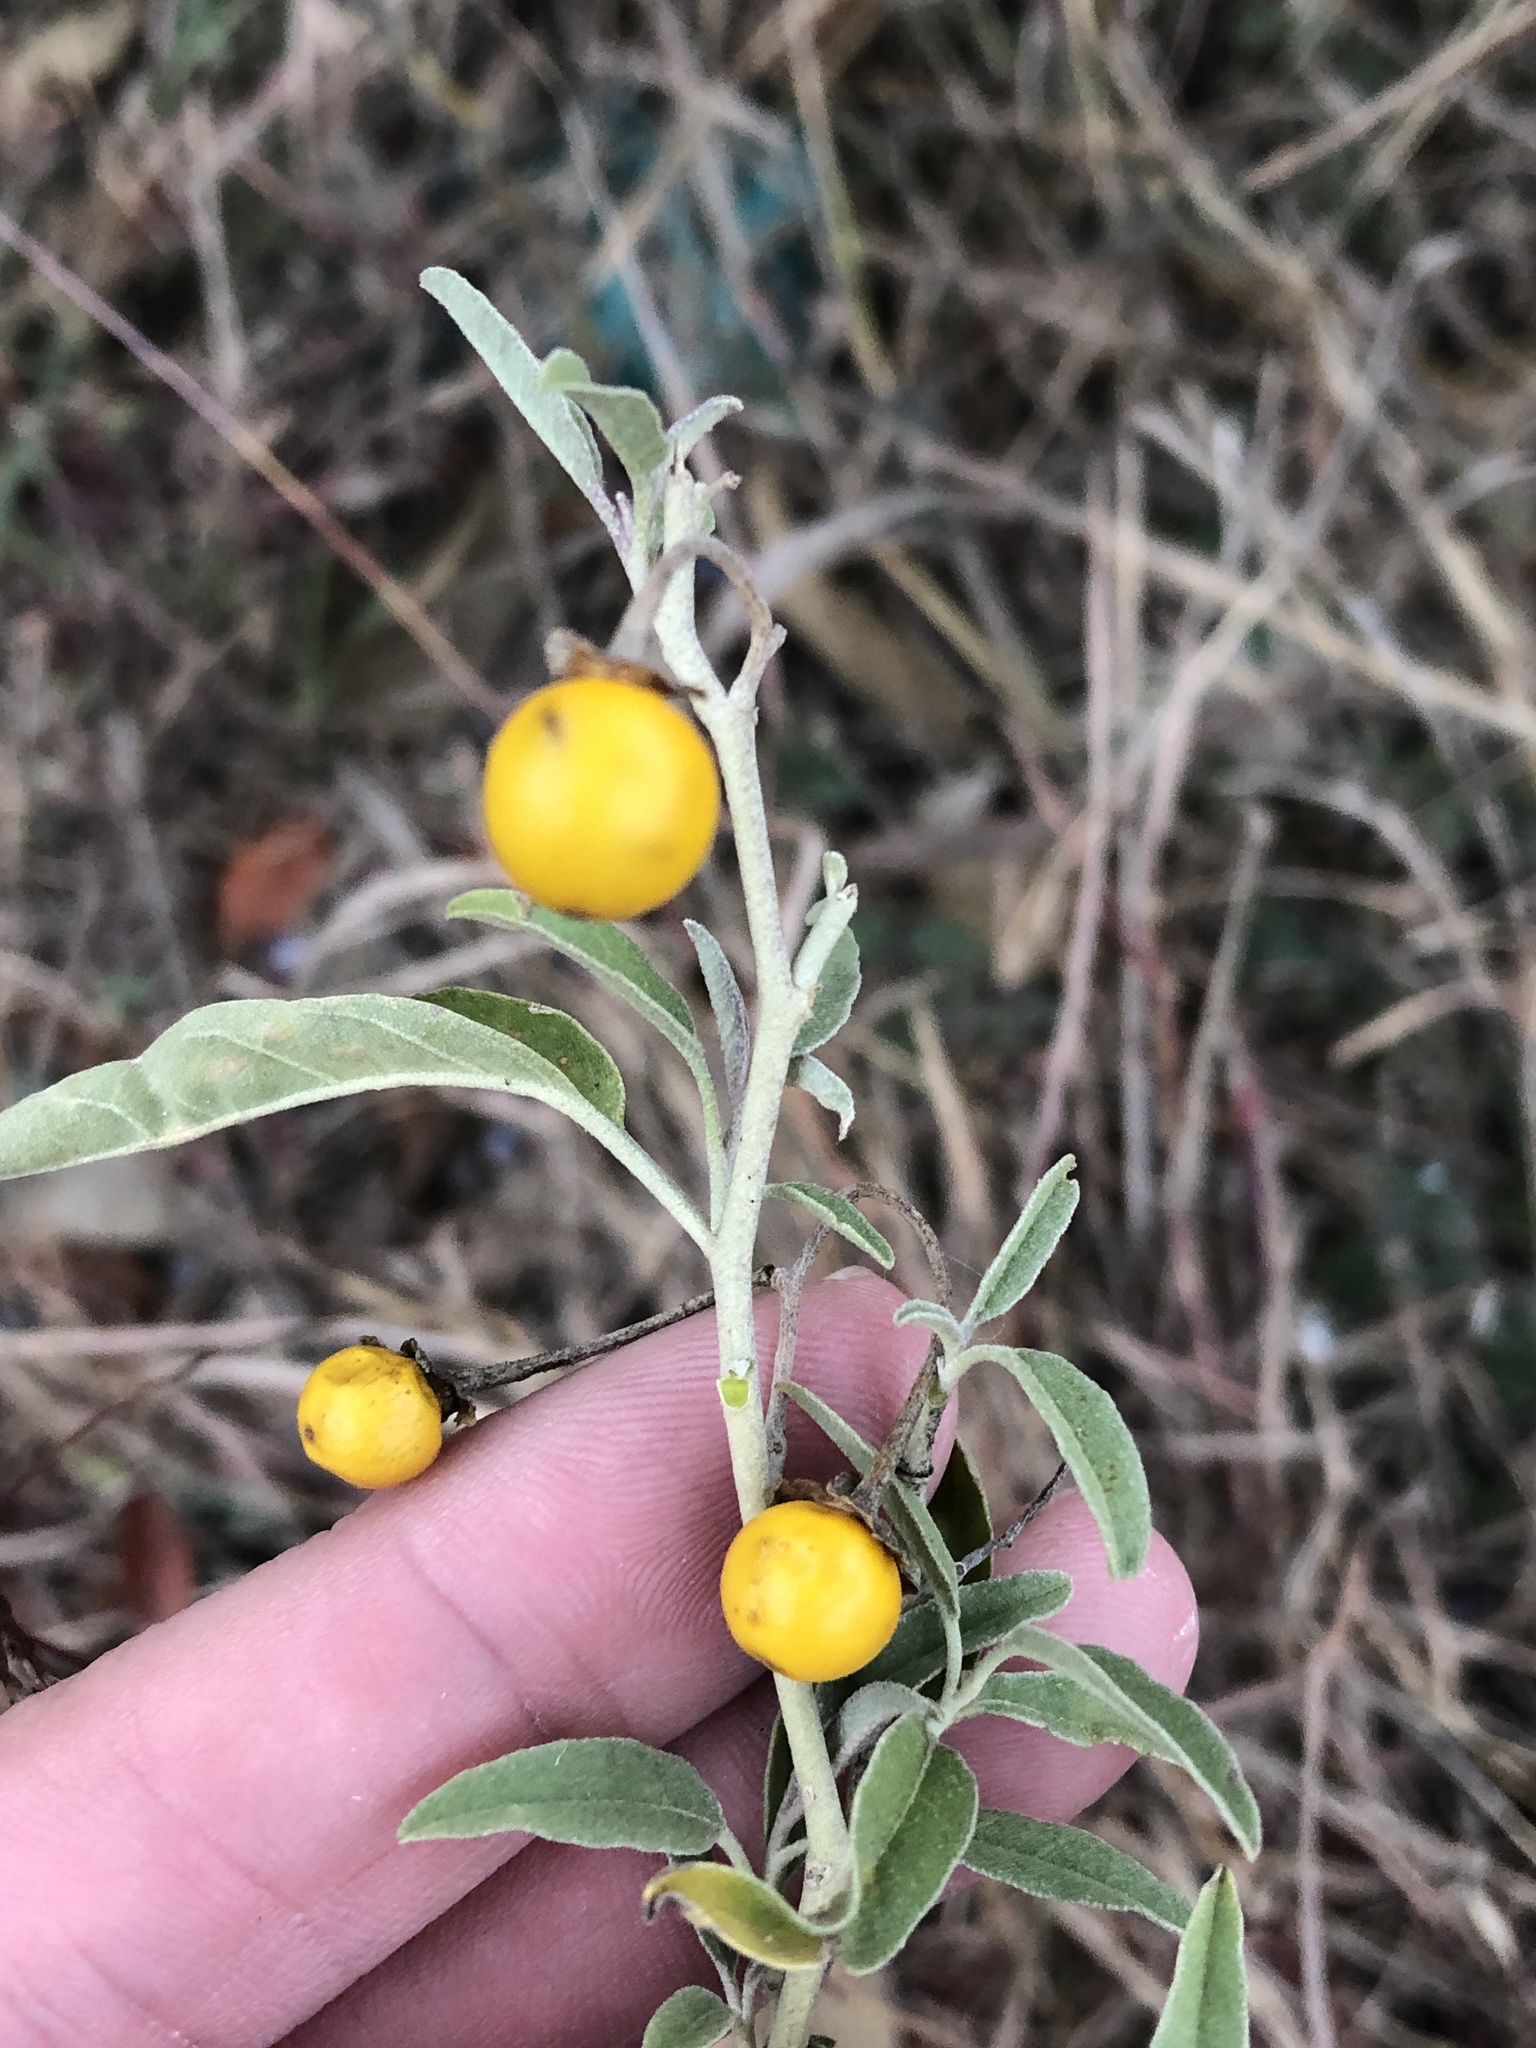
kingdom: Plantae
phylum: Tracheophyta
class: Magnoliopsida
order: Solanales
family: Solanaceae
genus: Solanum
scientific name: Solanum elaeagnifolium
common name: Silverleaf nightshade
